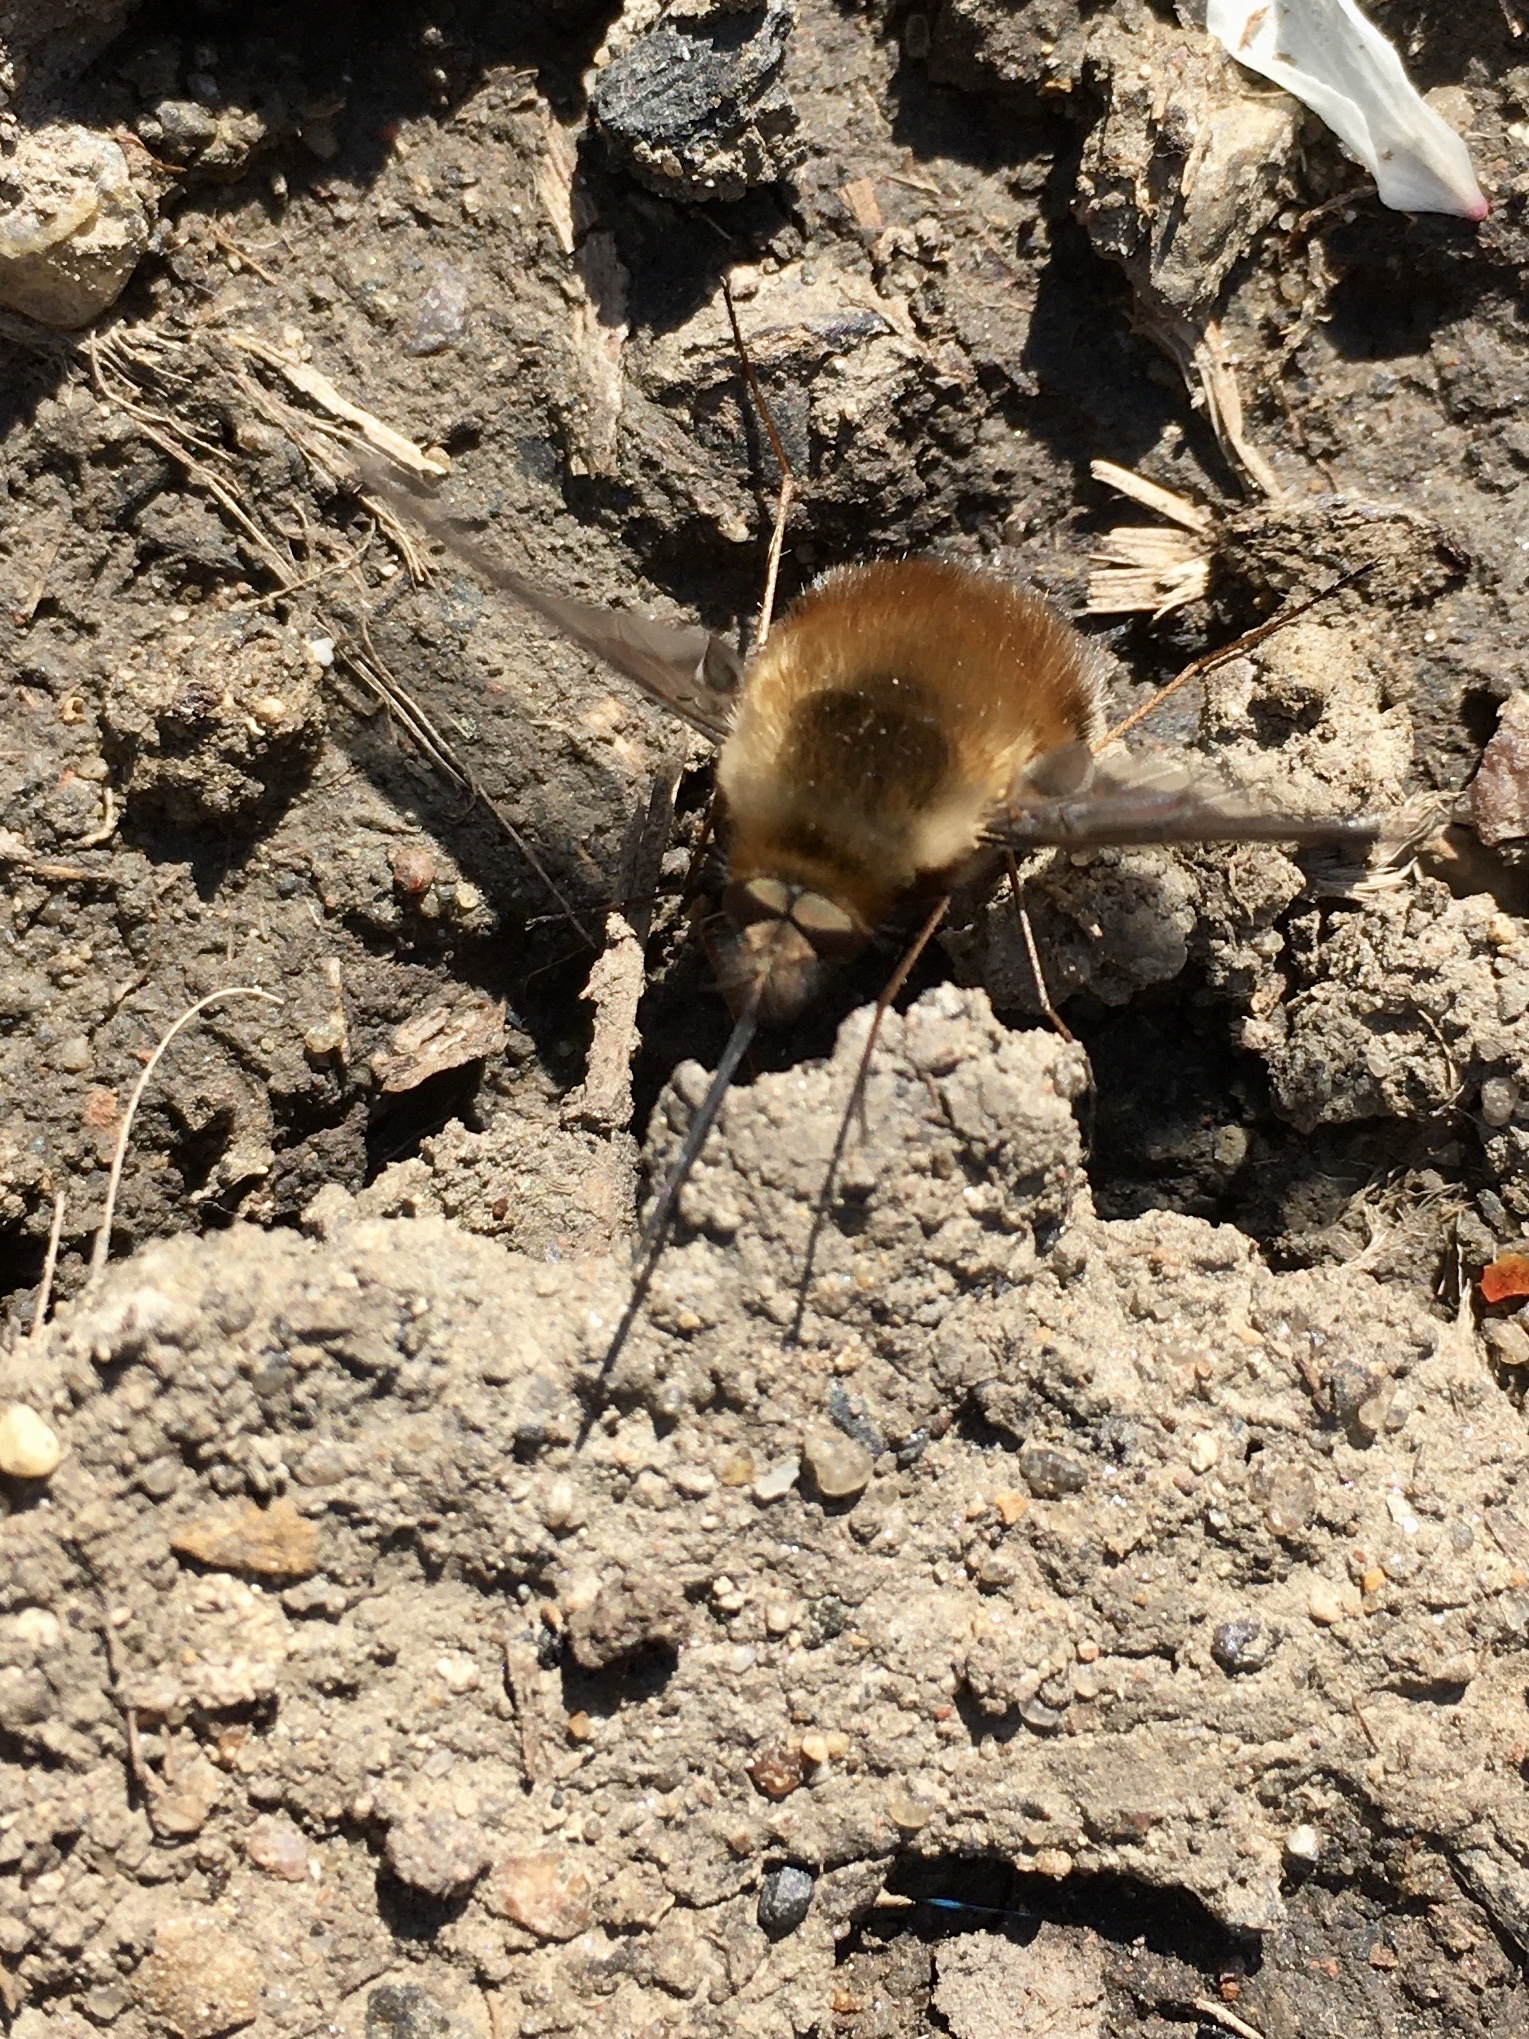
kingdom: Animalia
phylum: Arthropoda
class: Insecta
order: Diptera
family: Bombyliidae
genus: Bombylius
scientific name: Bombylius major
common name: Bee fly
